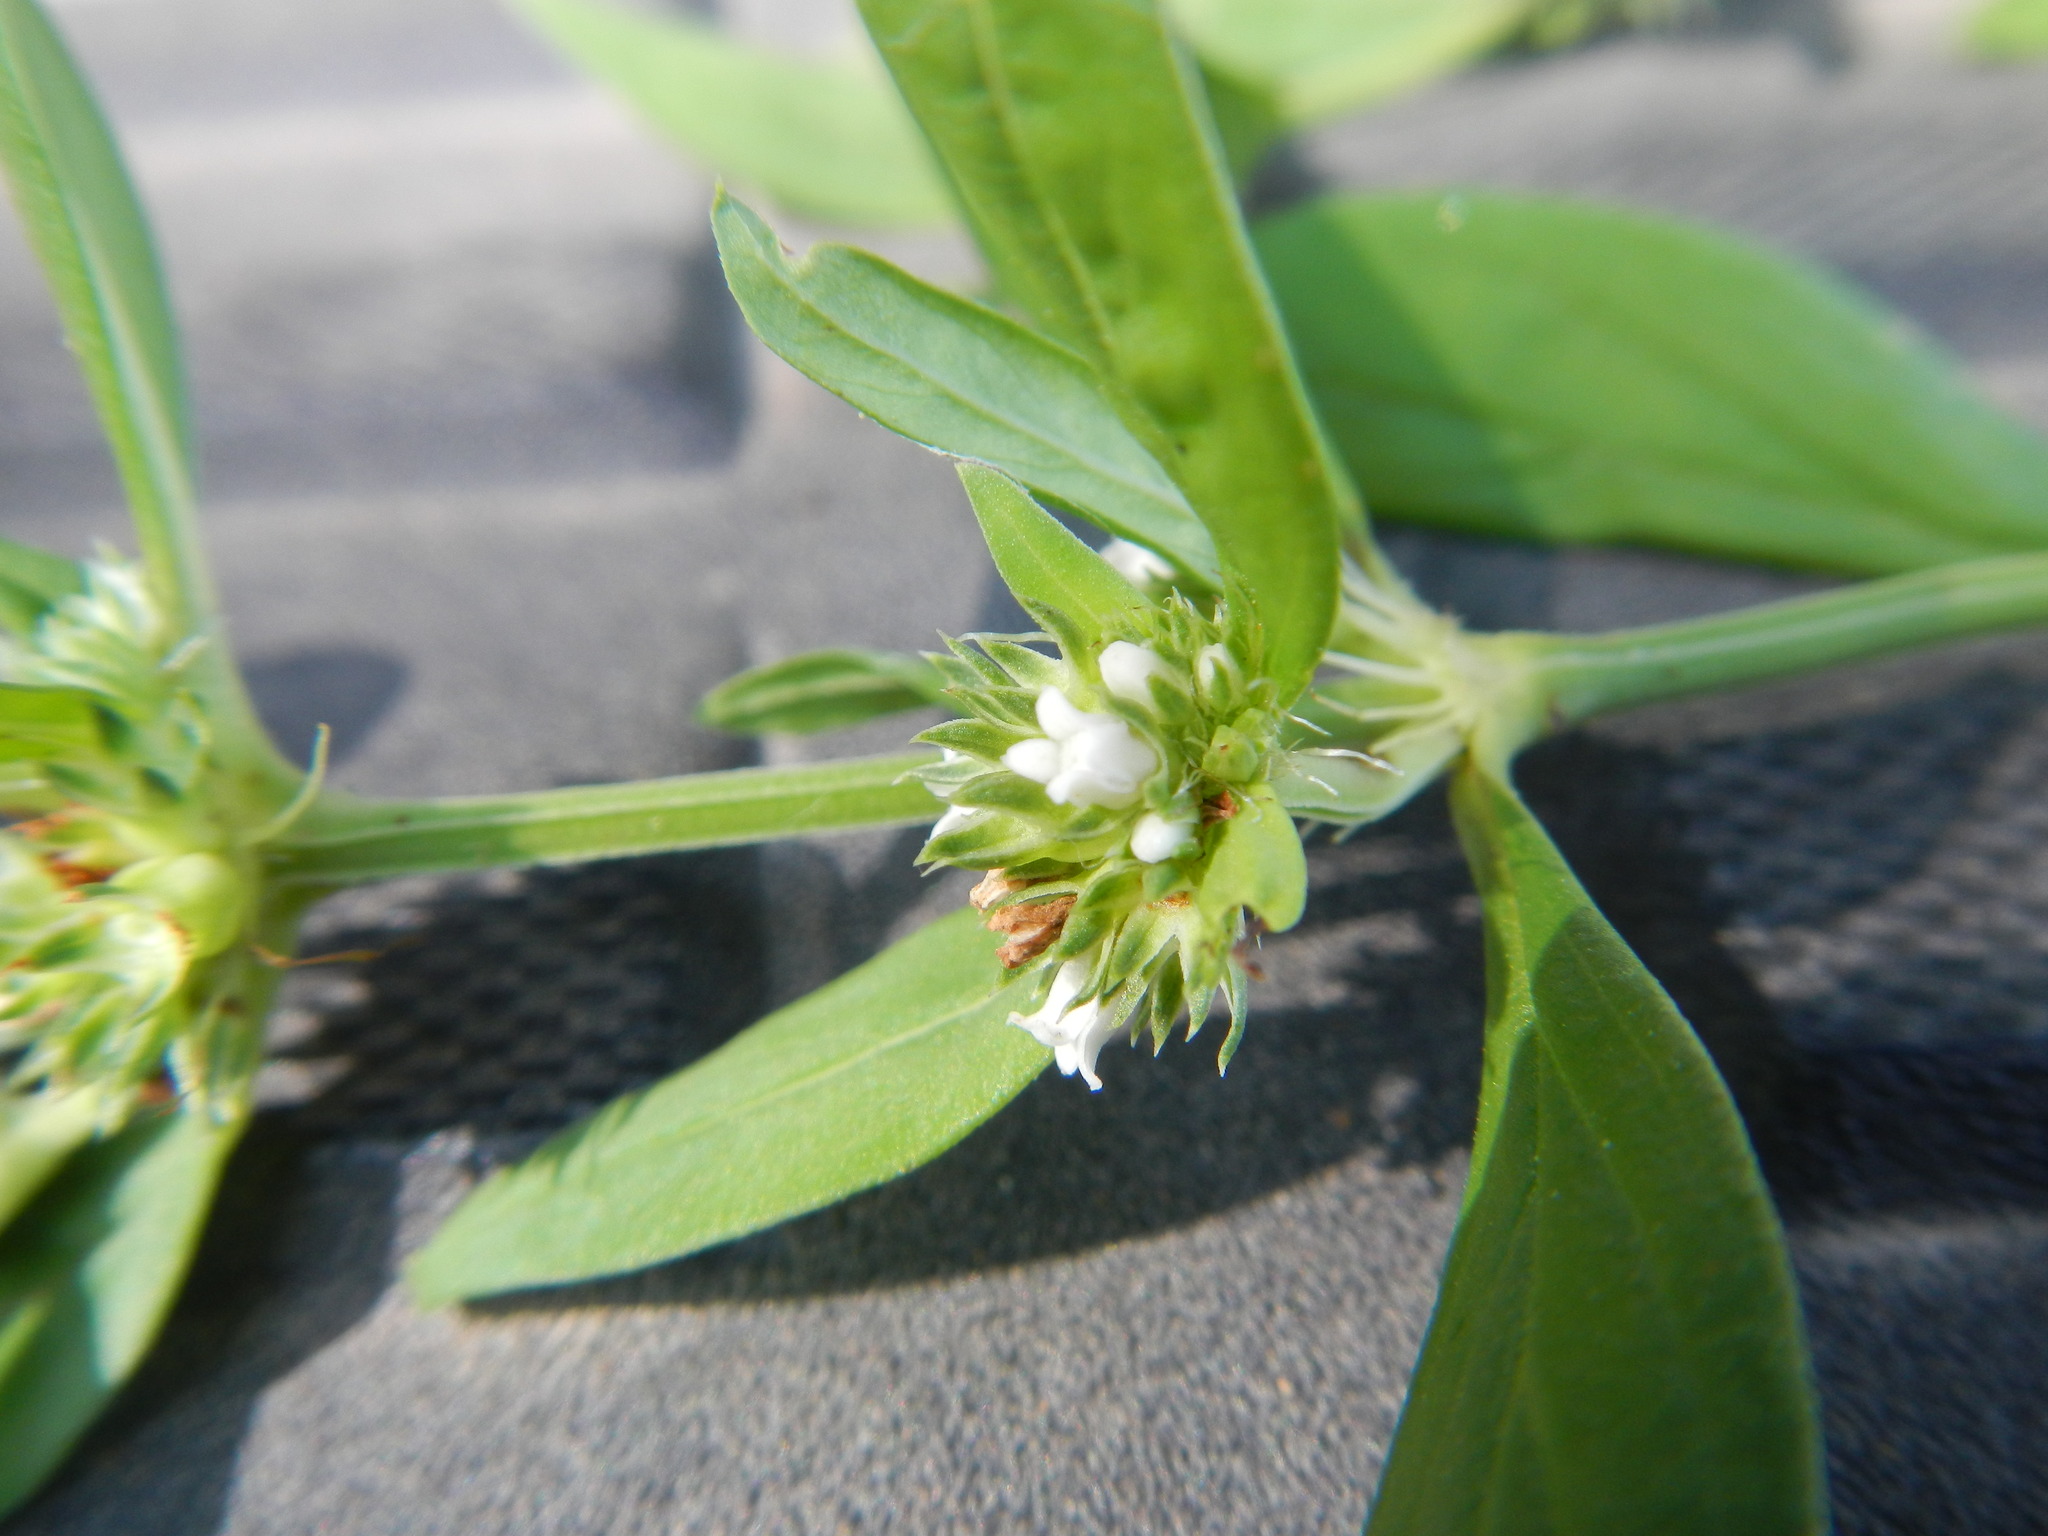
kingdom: Plantae
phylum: Tracheophyta
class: Magnoliopsida
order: Gentianales
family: Rubiaceae
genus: Spermacoce
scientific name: Spermacoce glabra
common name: Smooth buttonweed
